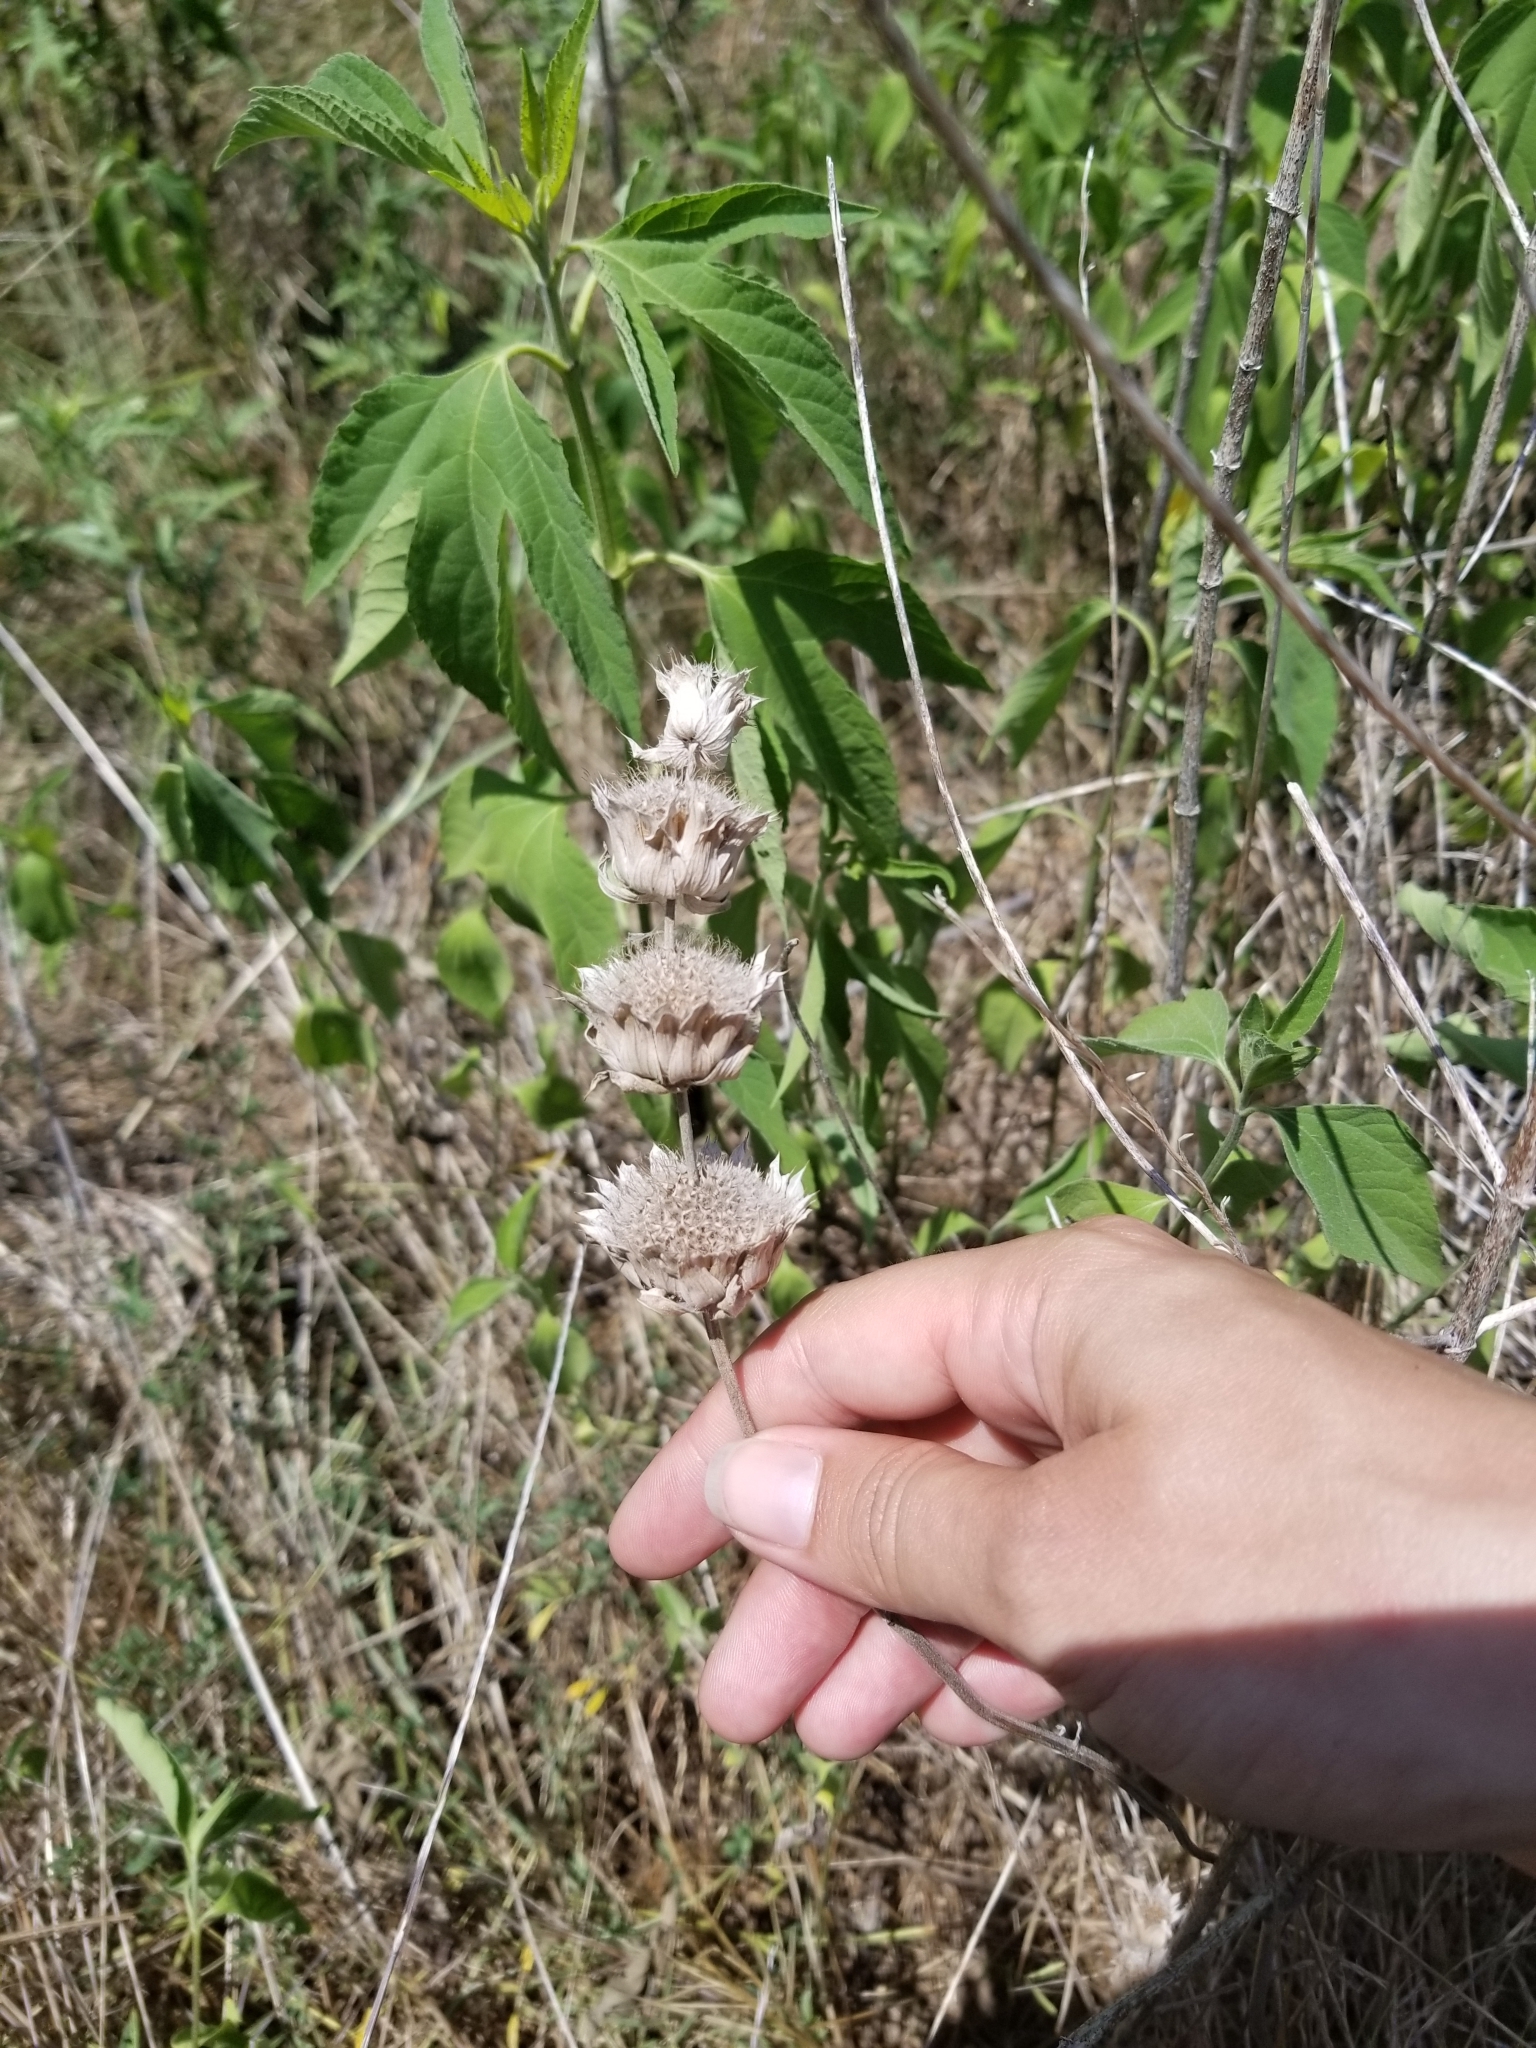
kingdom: Plantae
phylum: Tracheophyta
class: Magnoliopsida
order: Lamiales
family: Lamiaceae
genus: Monarda
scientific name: Monarda citriodora
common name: Lemon beebalm
